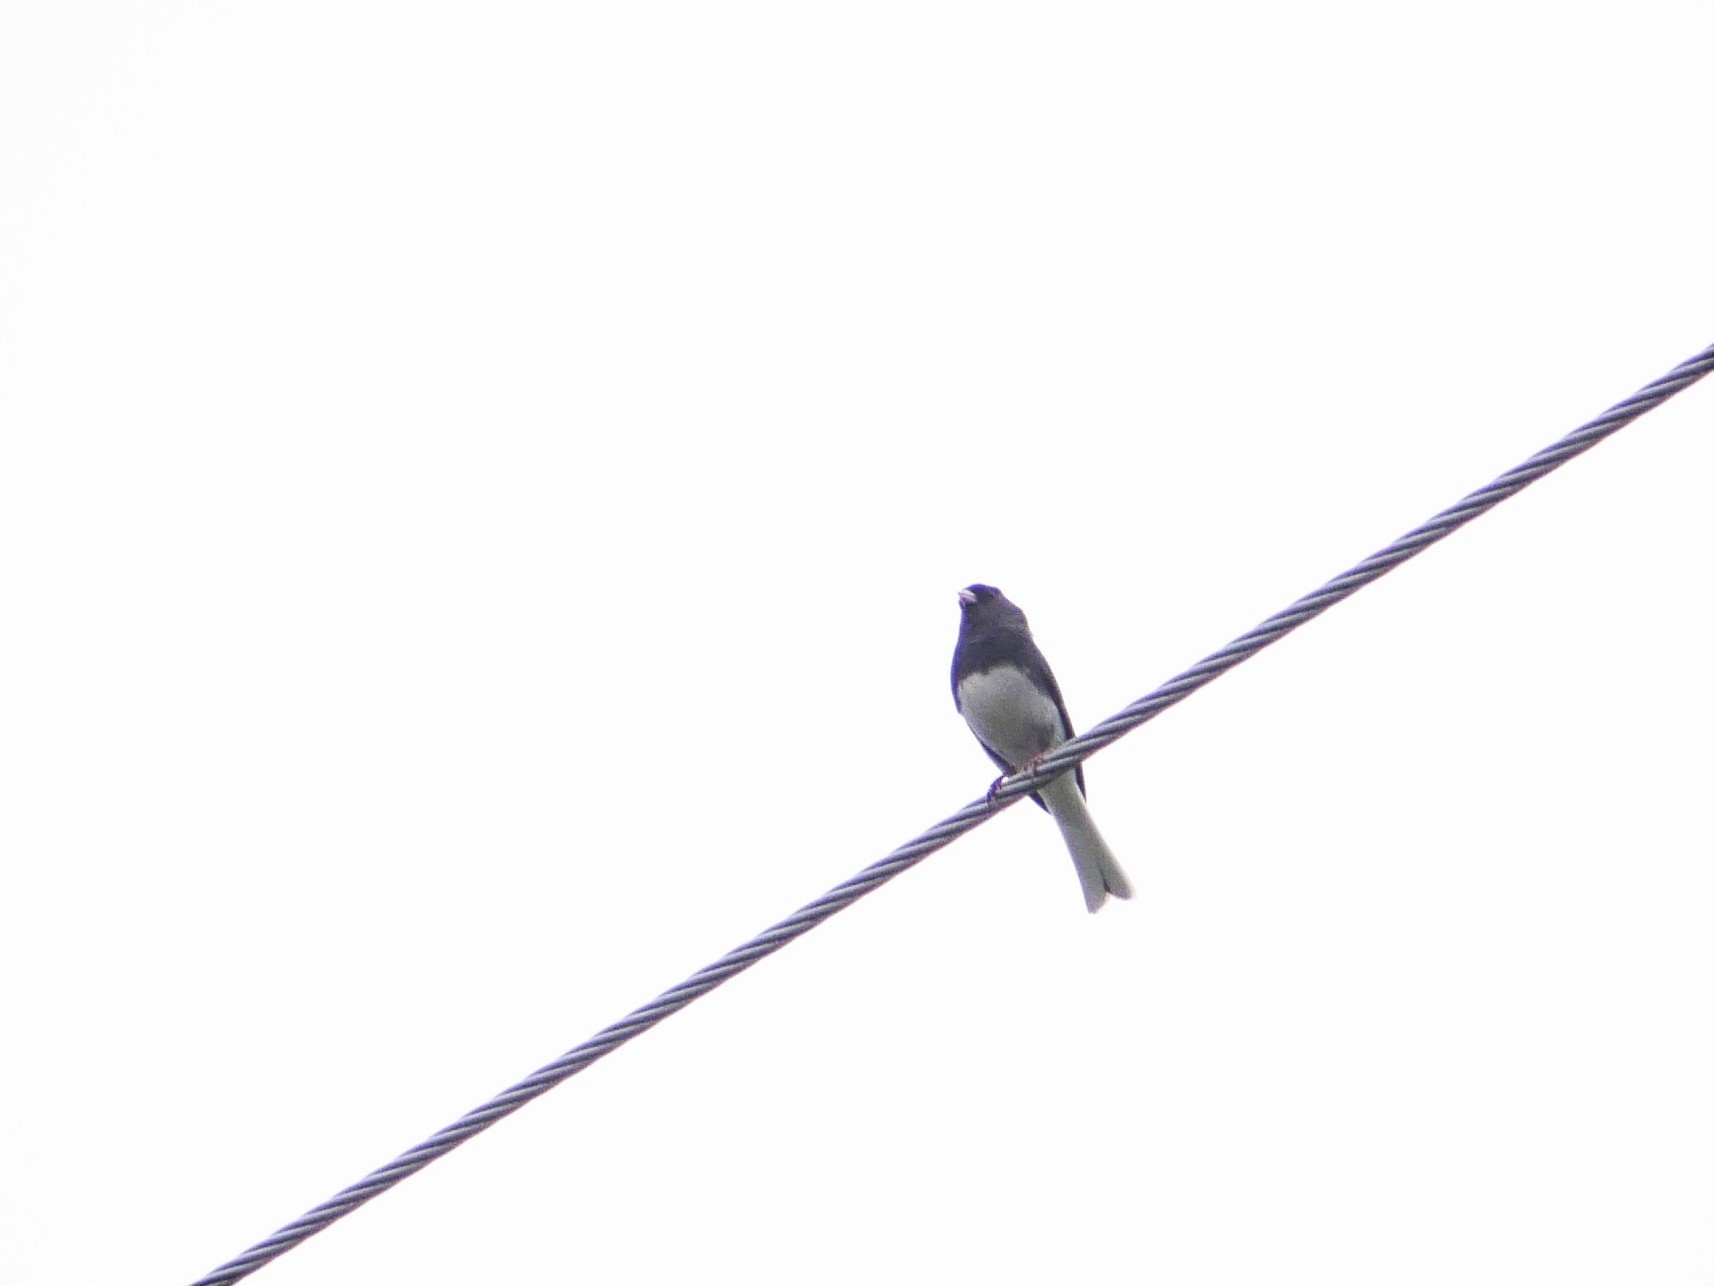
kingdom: Animalia
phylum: Chordata
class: Aves
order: Passeriformes
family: Passerellidae
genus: Junco
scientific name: Junco hyemalis
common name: Dark-eyed junco
